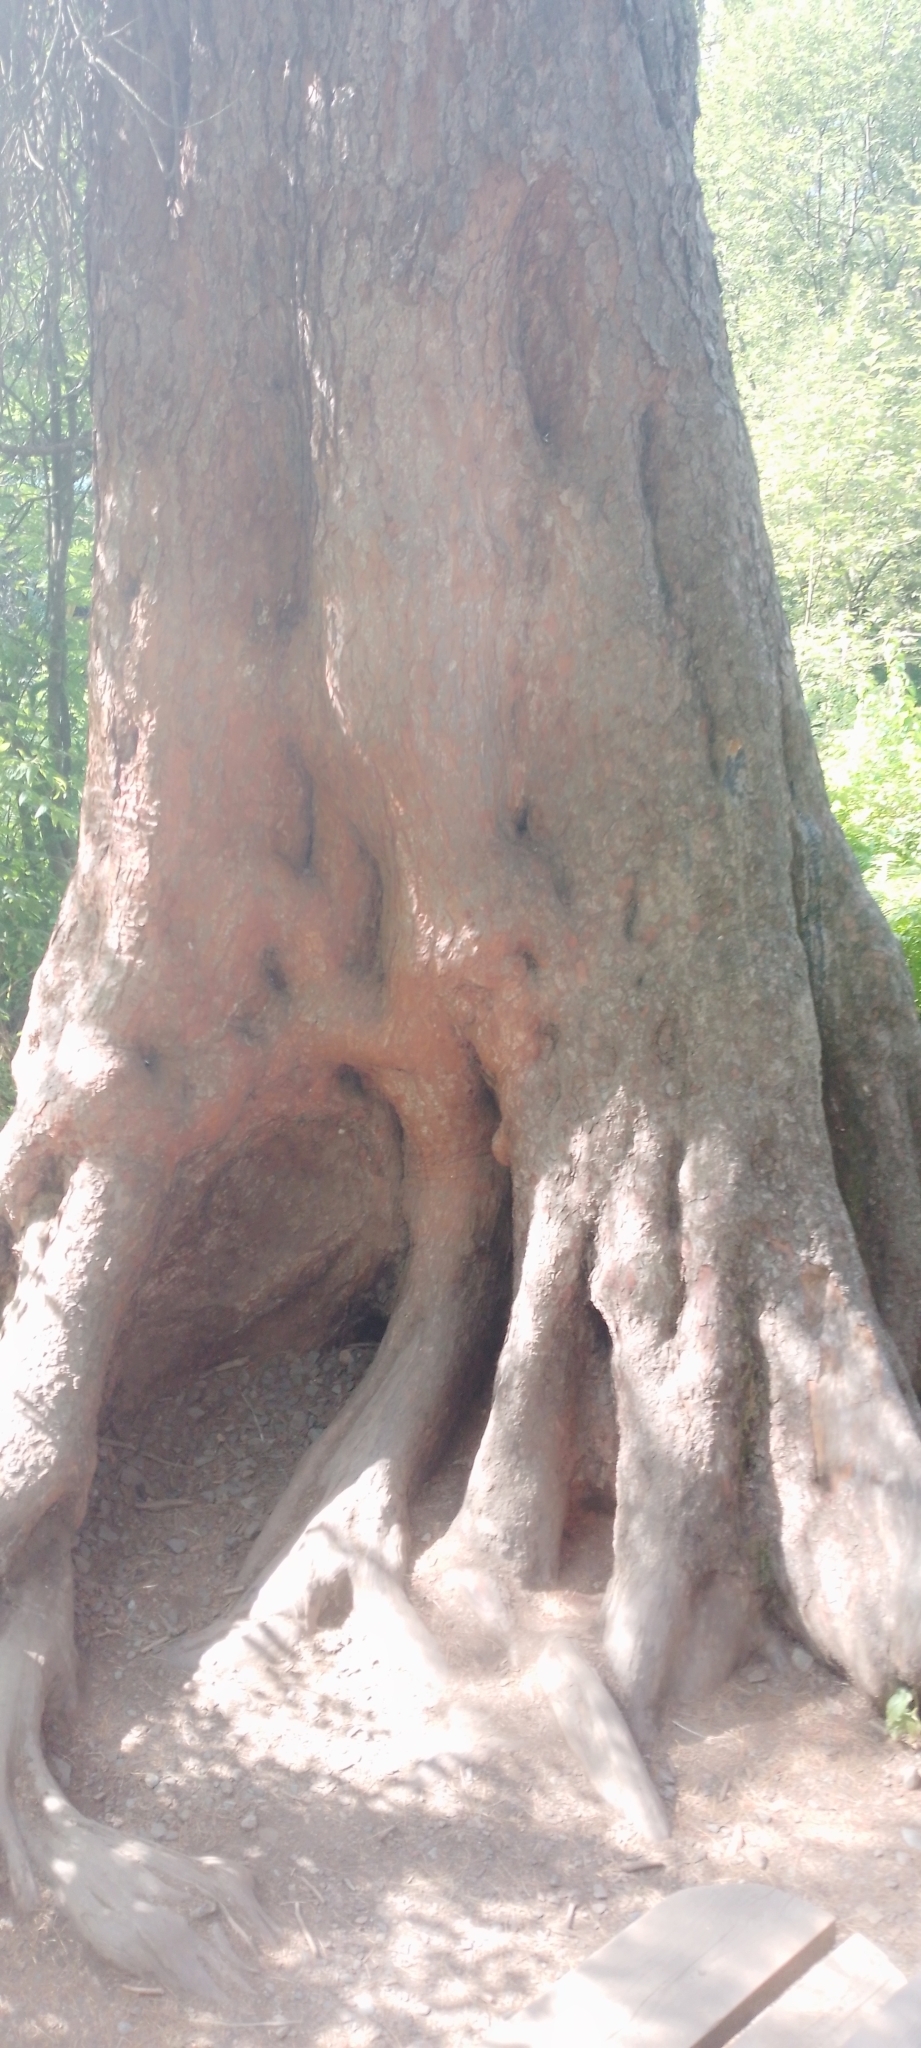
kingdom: Plantae
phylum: Tracheophyta
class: Pinopsida
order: Pinales
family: Pinaceae
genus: Pinus
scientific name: Pinus sibirica
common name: Siberian pine
